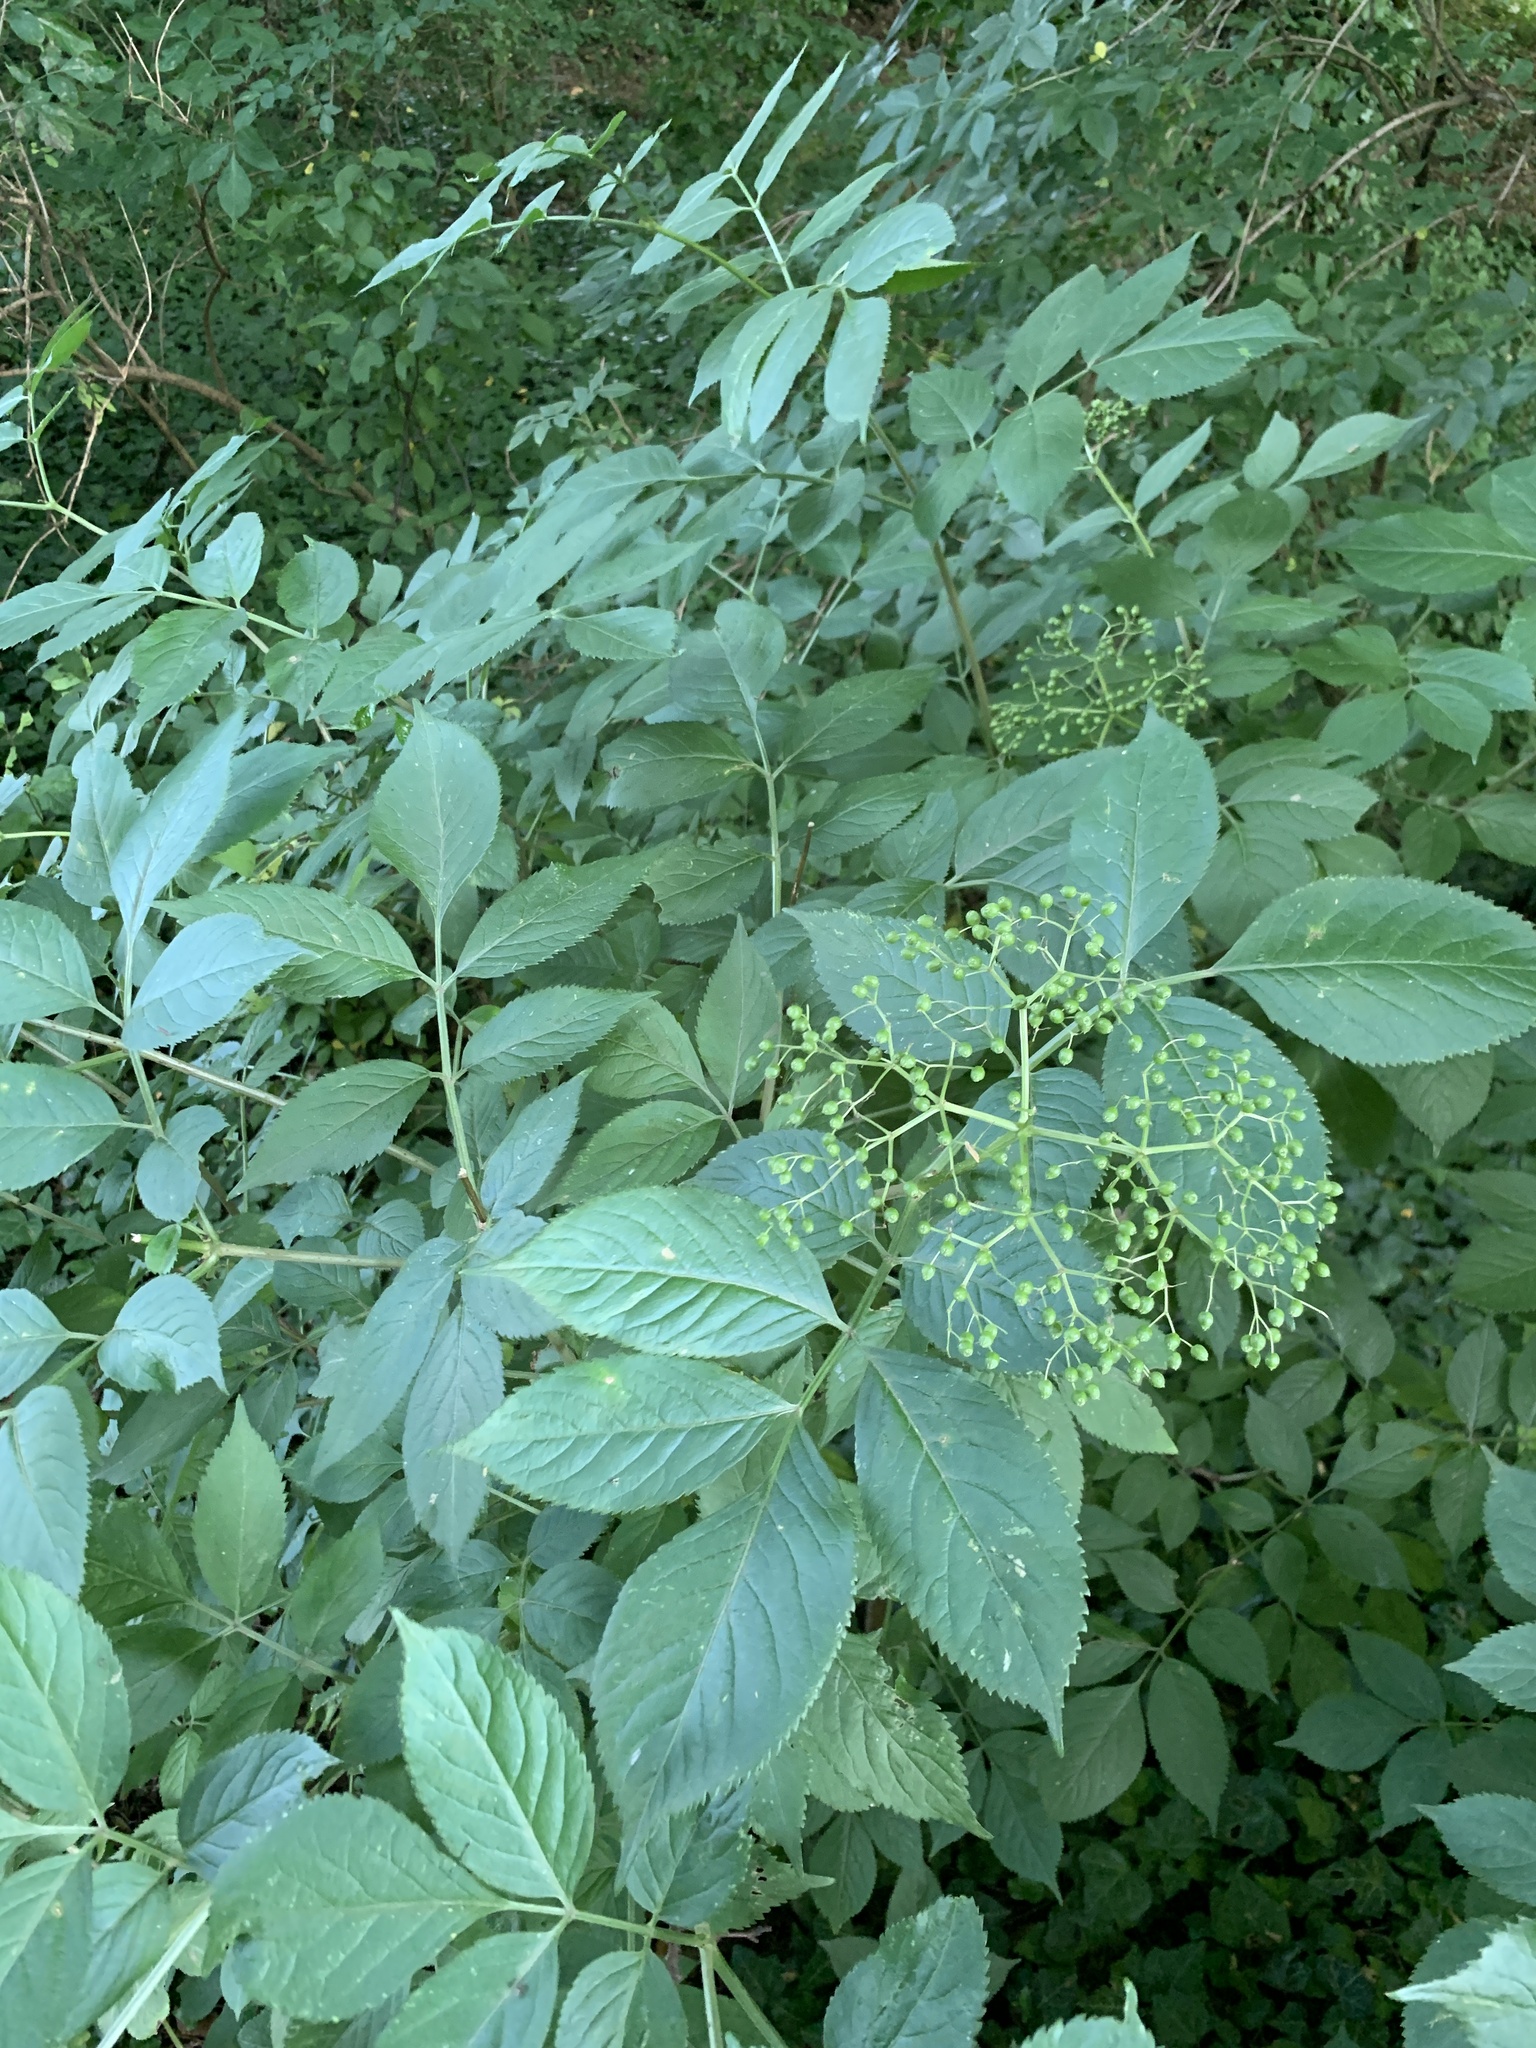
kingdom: Plantae
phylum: Tracheophyta
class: Magnoliopsida
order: Dipsacales
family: Viburnaceae
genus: Sambucus
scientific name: Sambucus nigra
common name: Elder
